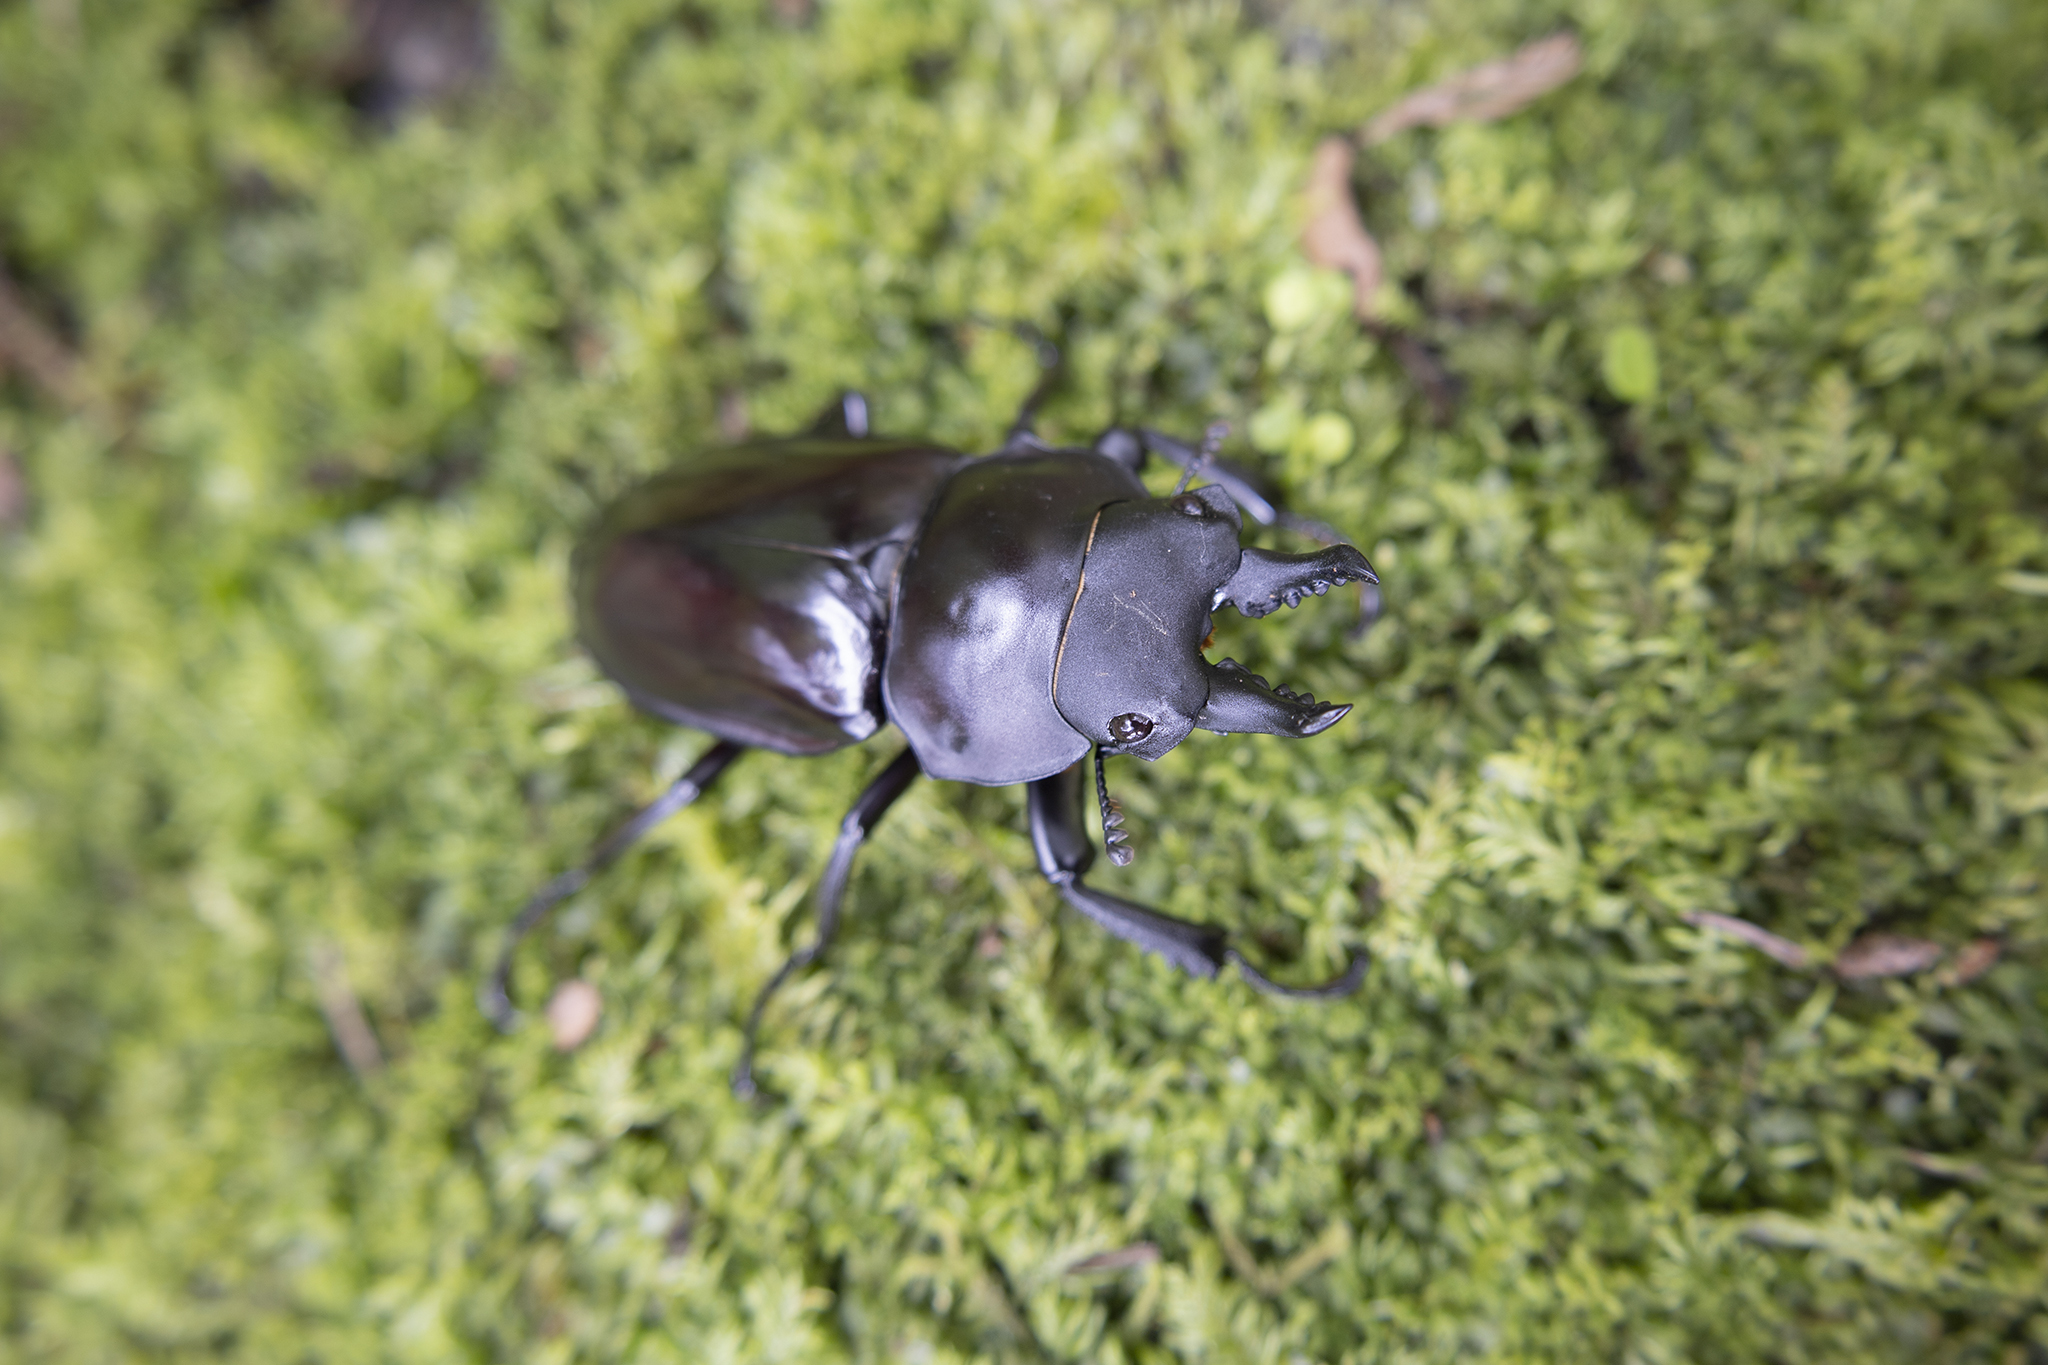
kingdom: Animalia
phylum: Arthropoda
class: Insecta
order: Coleoptera
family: Lucanidae
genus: Neolucanus
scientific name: Neolucanus baladeva
